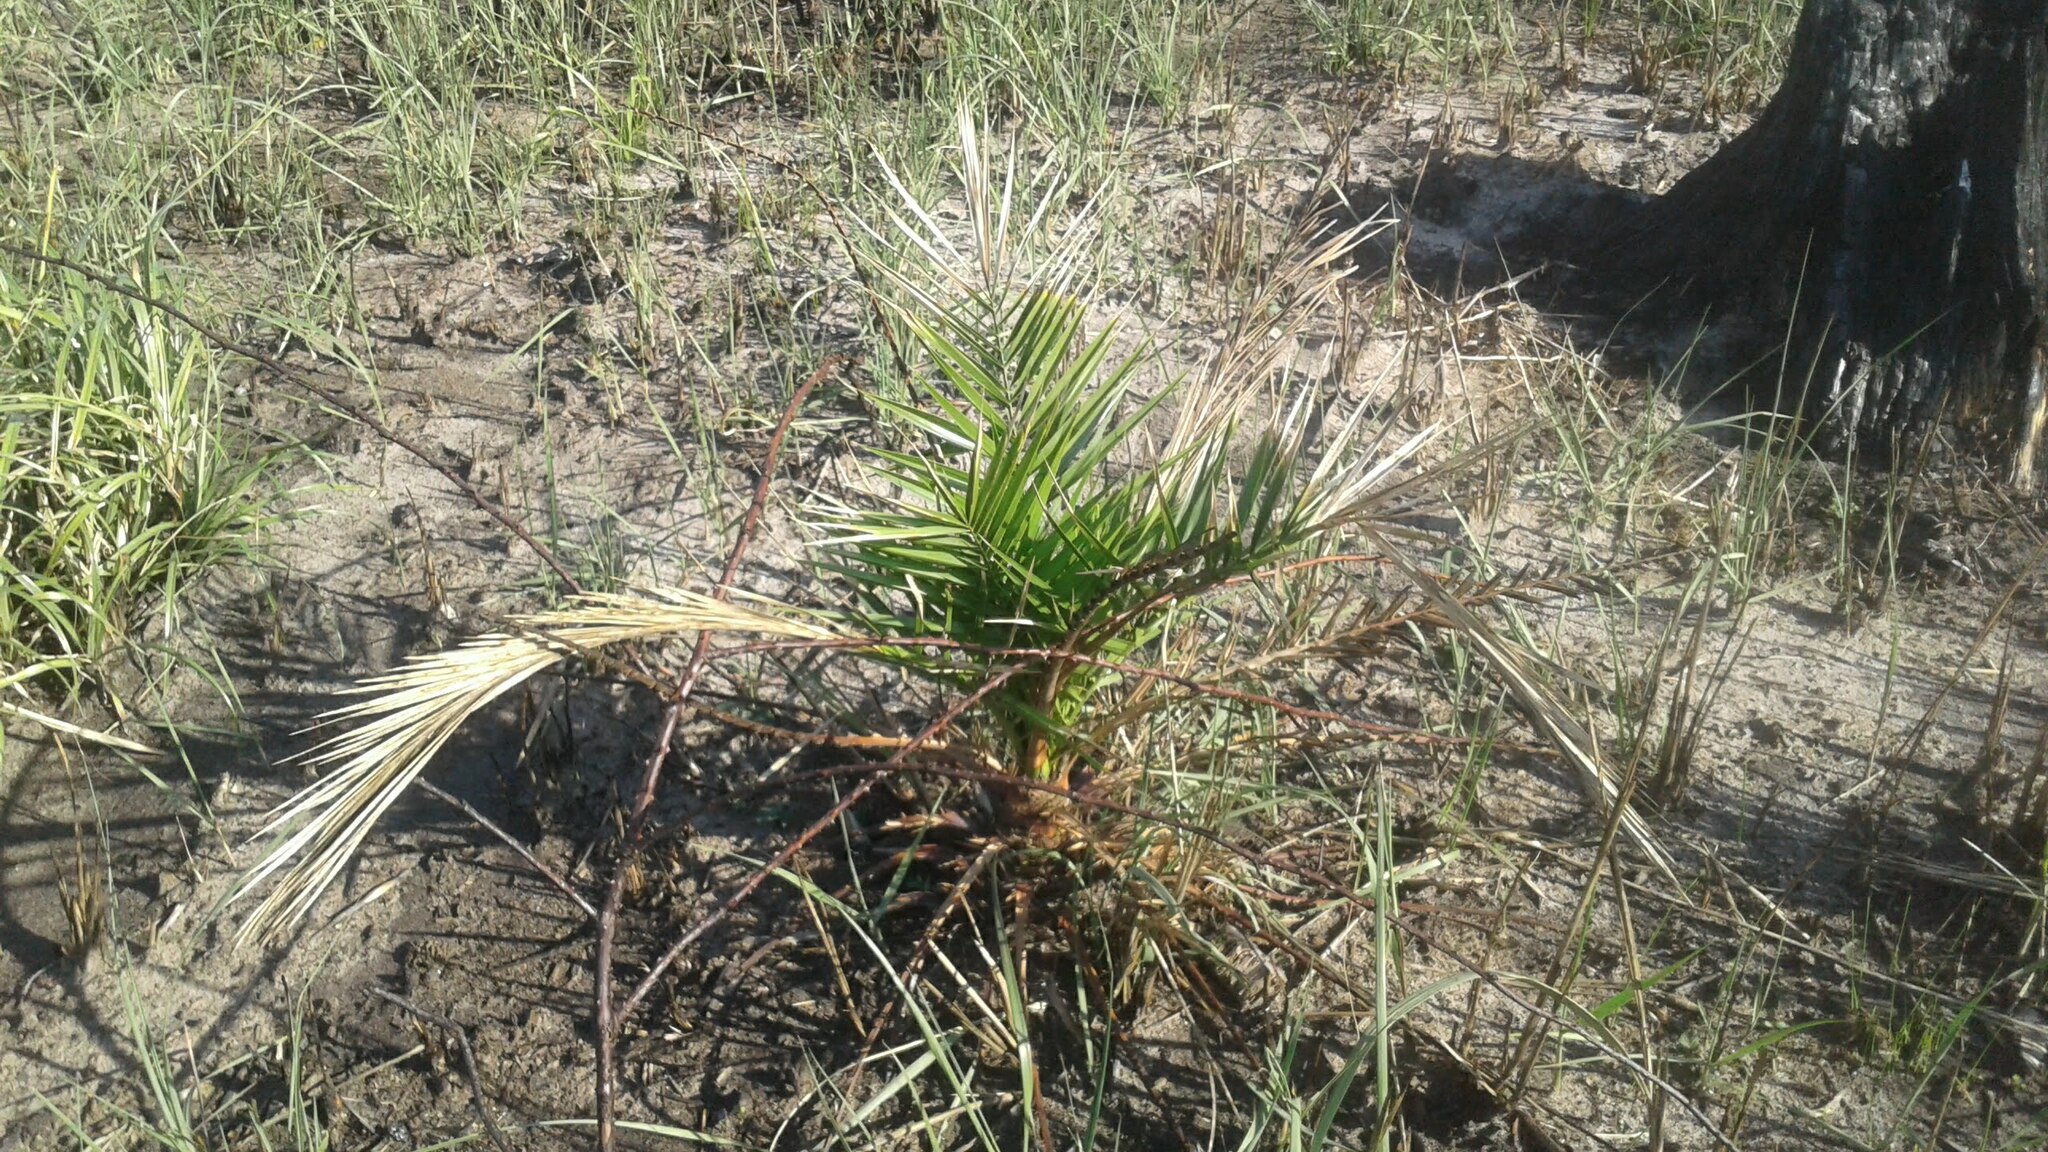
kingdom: Plantae
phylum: Tracheophyta
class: Liliopsida
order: Arecales
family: Arecaceae
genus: Phoenix
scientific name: Phoenix canariensis
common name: Canary island date palm
